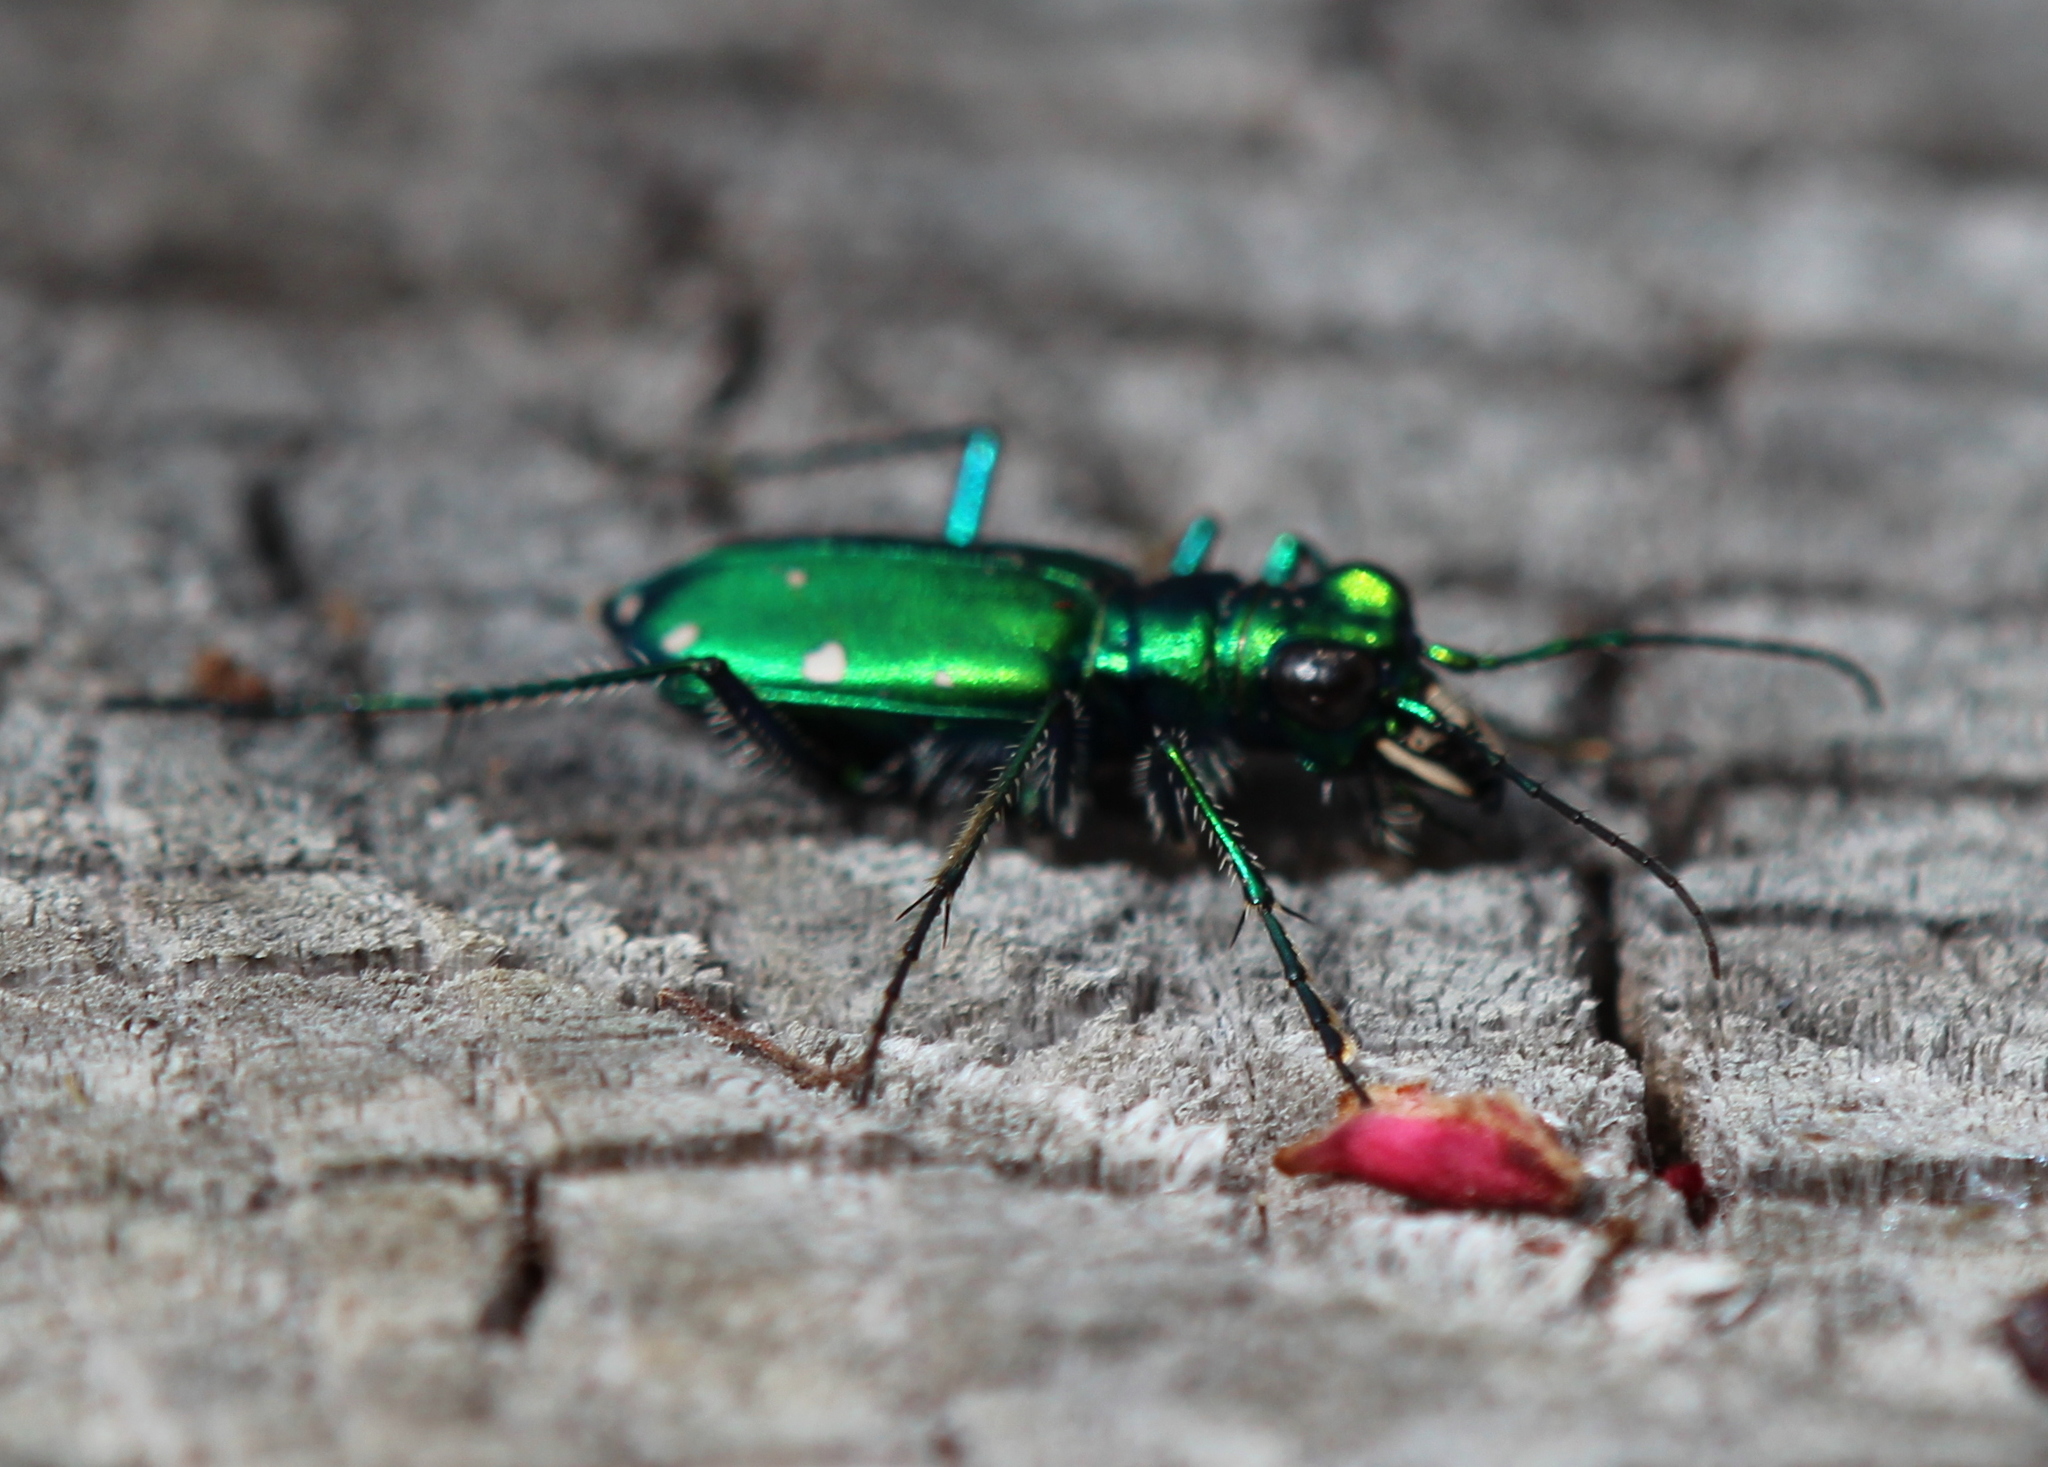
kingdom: Animalia
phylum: Arthropoda
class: Insecta
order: Coleoptera
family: Carabidae
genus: Cicindela
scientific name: Cicindela sexguttata
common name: Six-spotted tiger beetle
